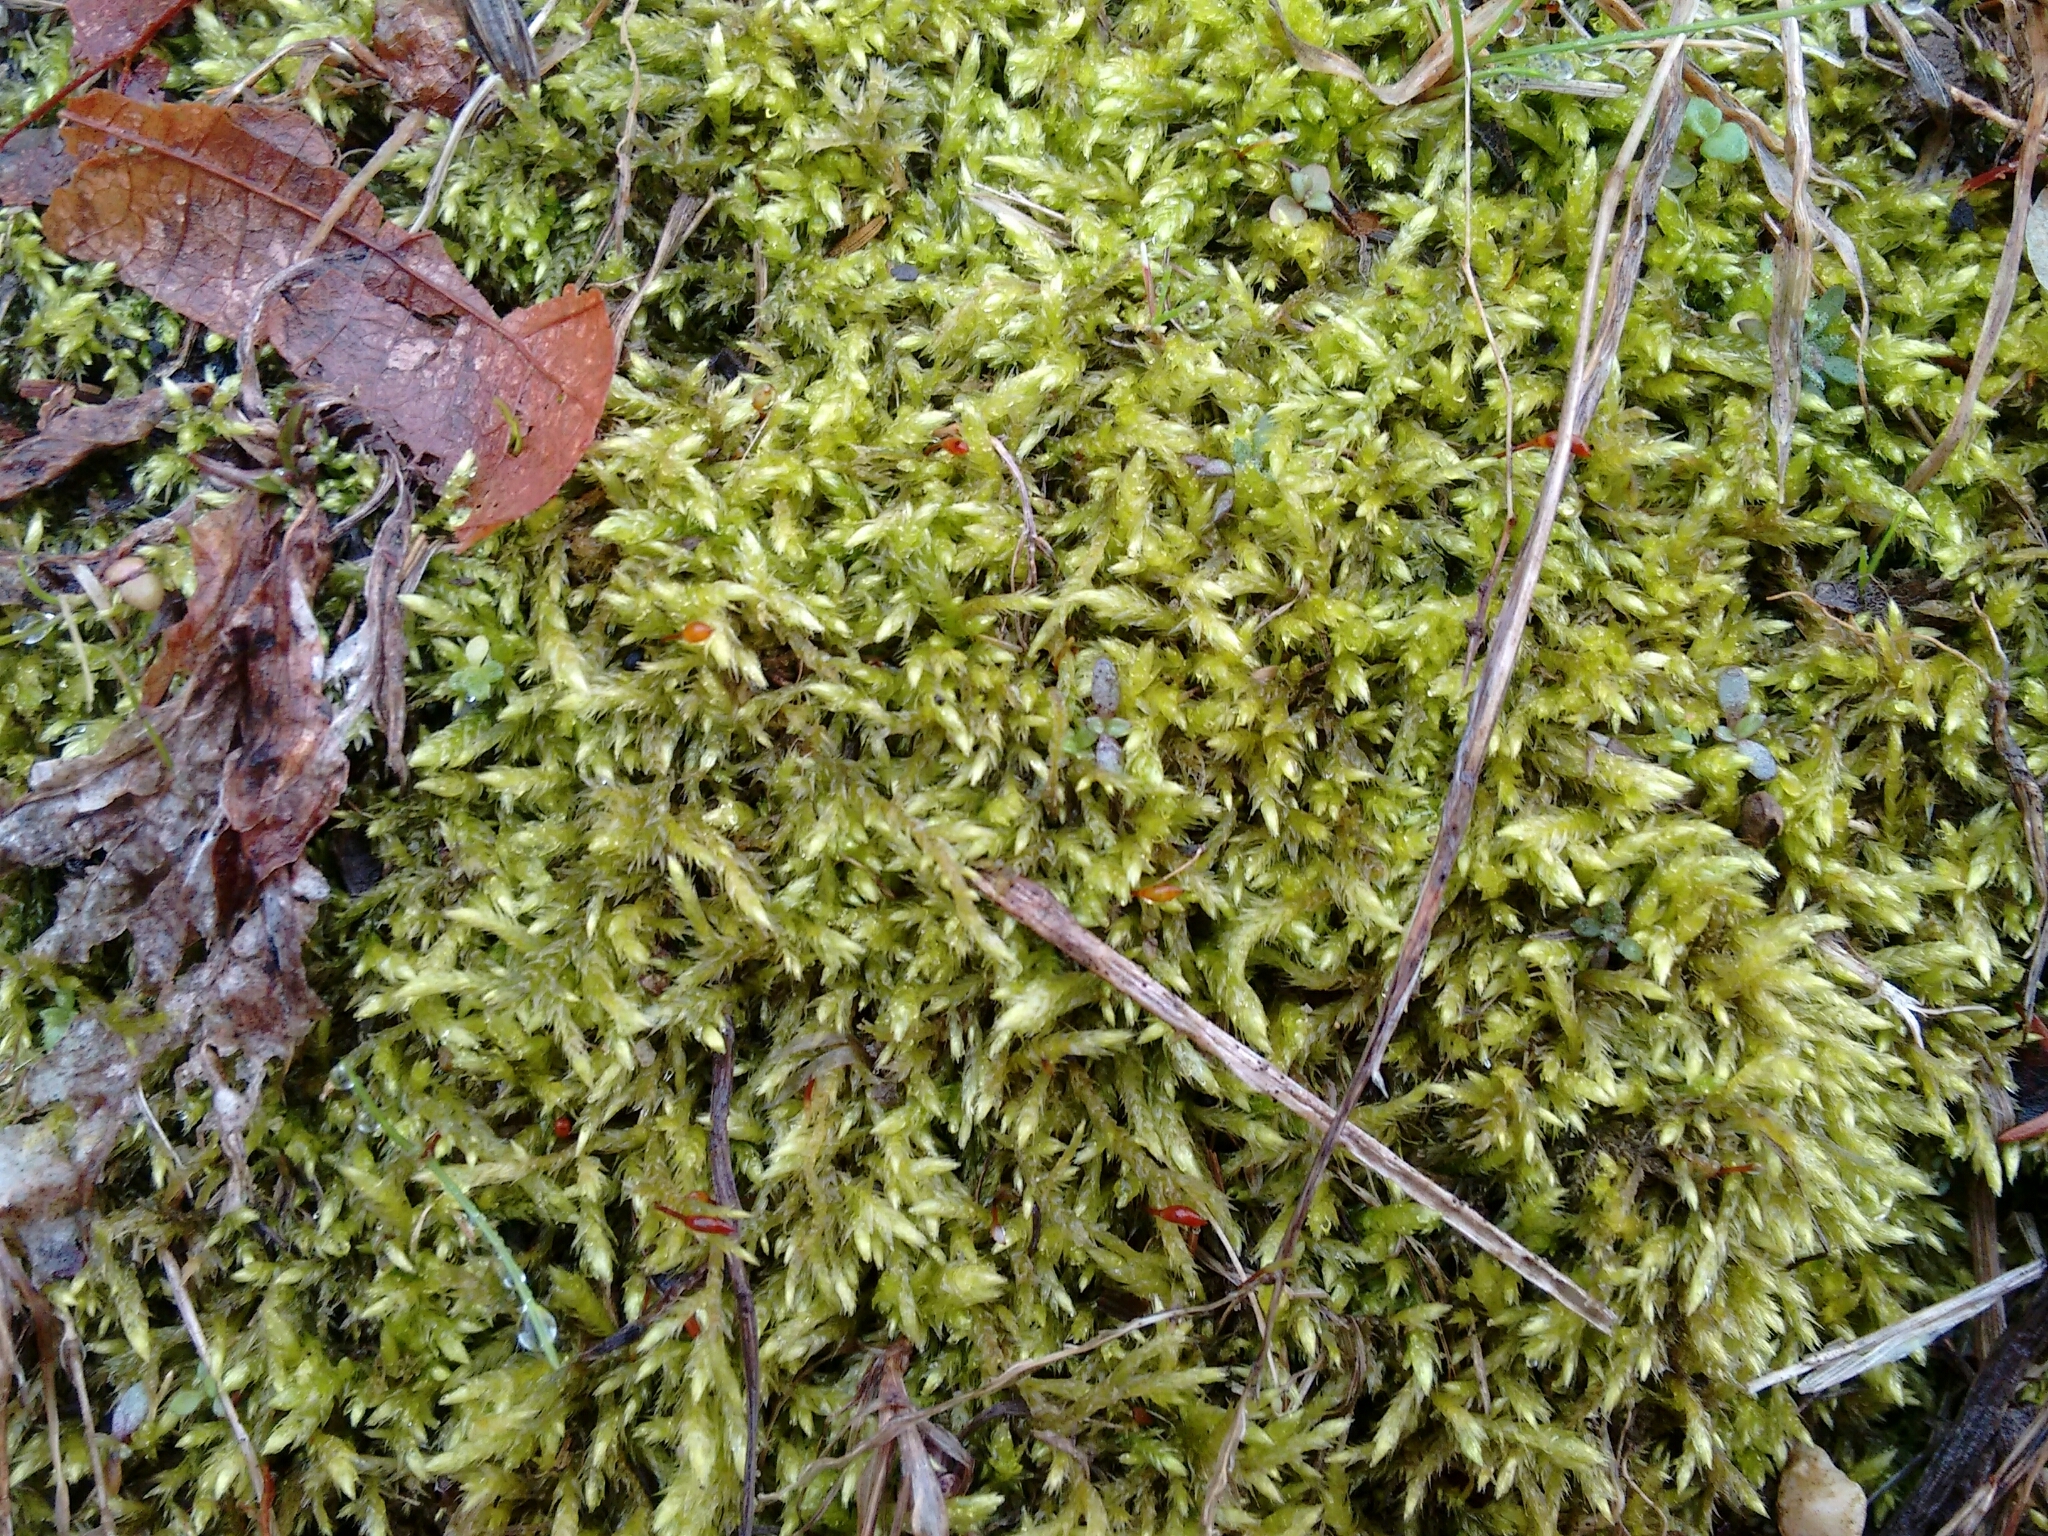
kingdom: Plantae
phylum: Bryophyta
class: Bryopsida
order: Hypnales
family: Brachytheciaceae
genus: Brachythecium
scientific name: Brachythecium salebrosum
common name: Smooth-stalk feather-moss
